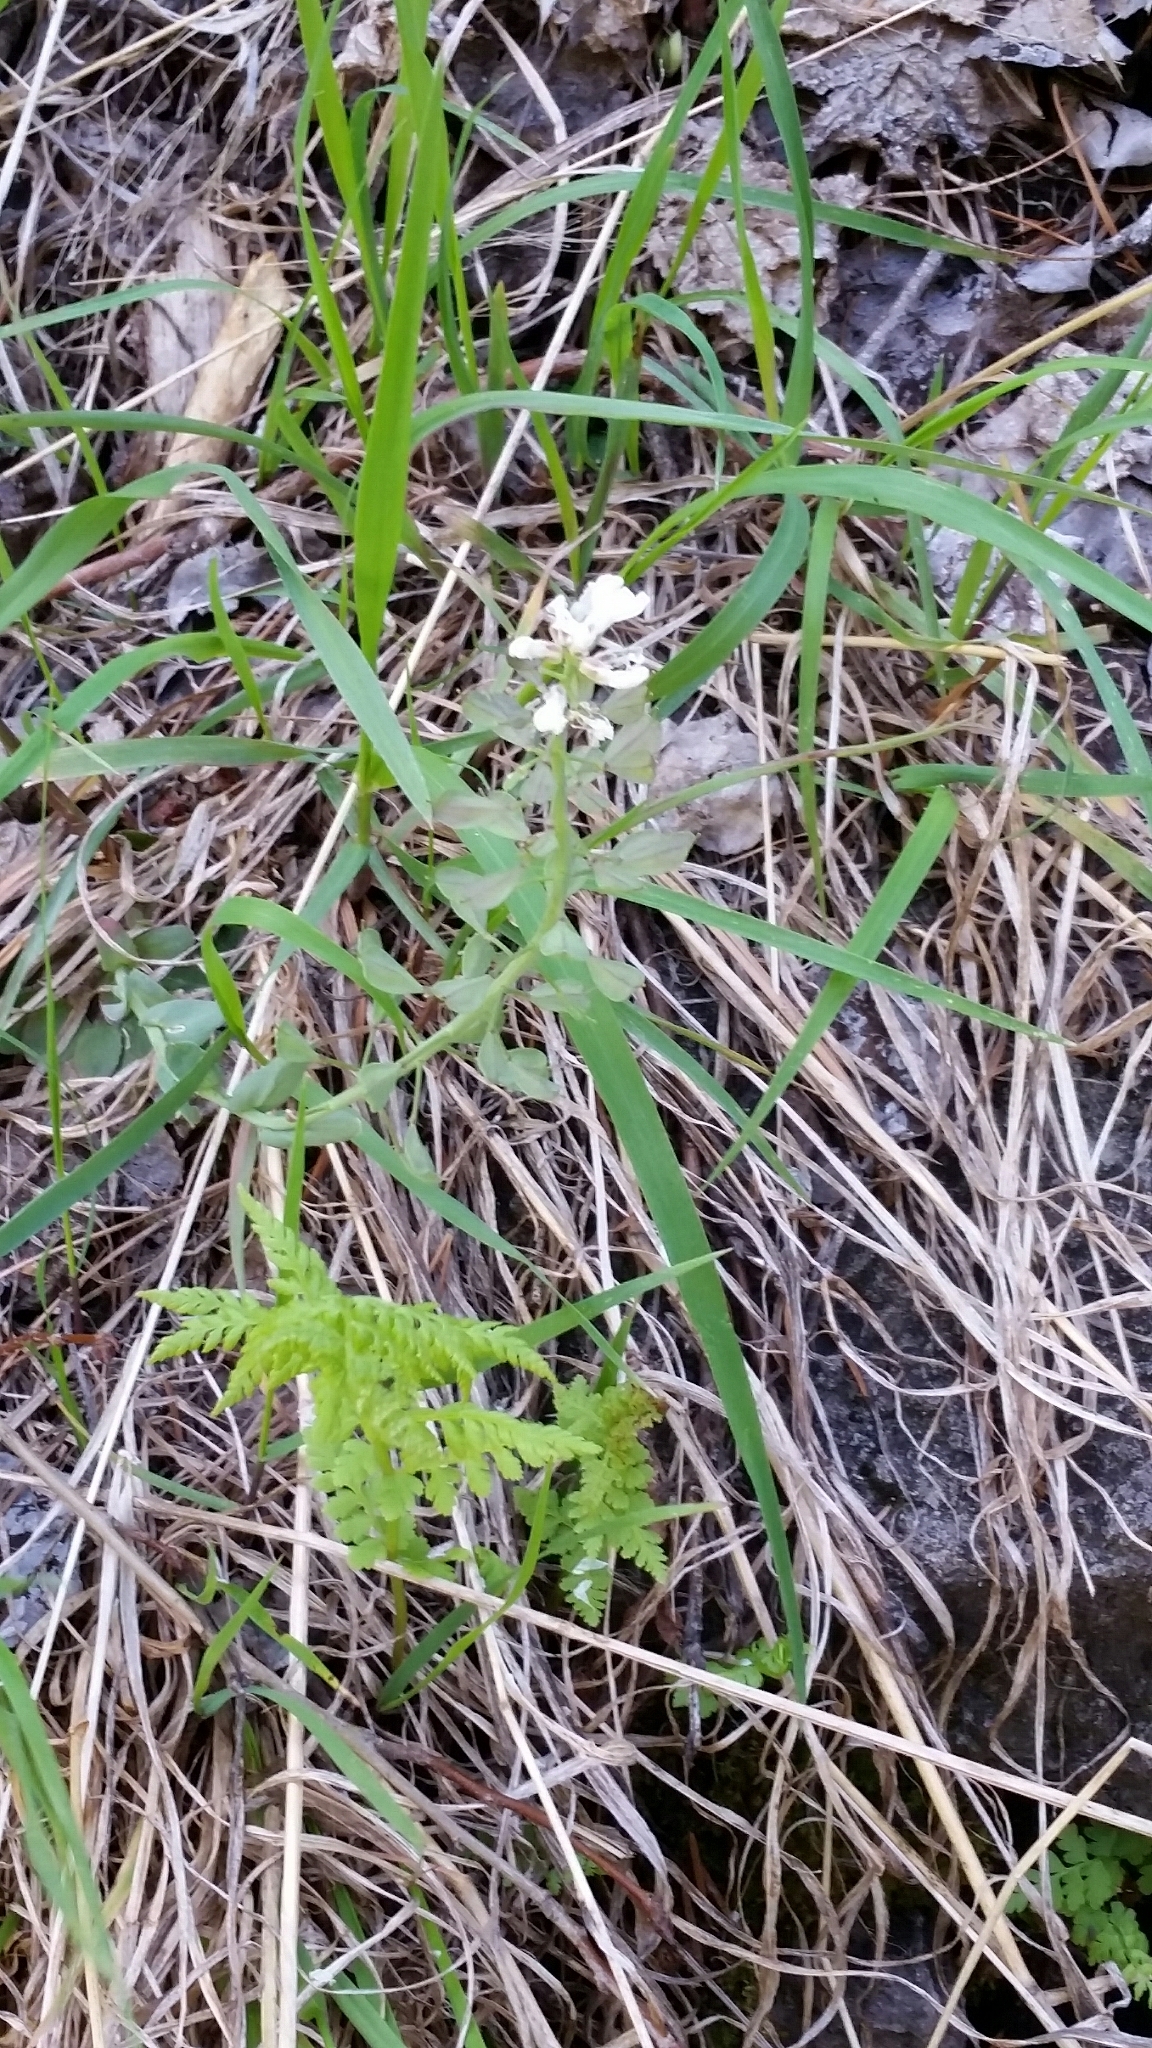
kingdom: Plantae
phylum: Tracheophyta
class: Magnoliopsida
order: Brassicales
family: Brassicaceae
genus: Noccaea
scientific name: Noccaea fendleri
